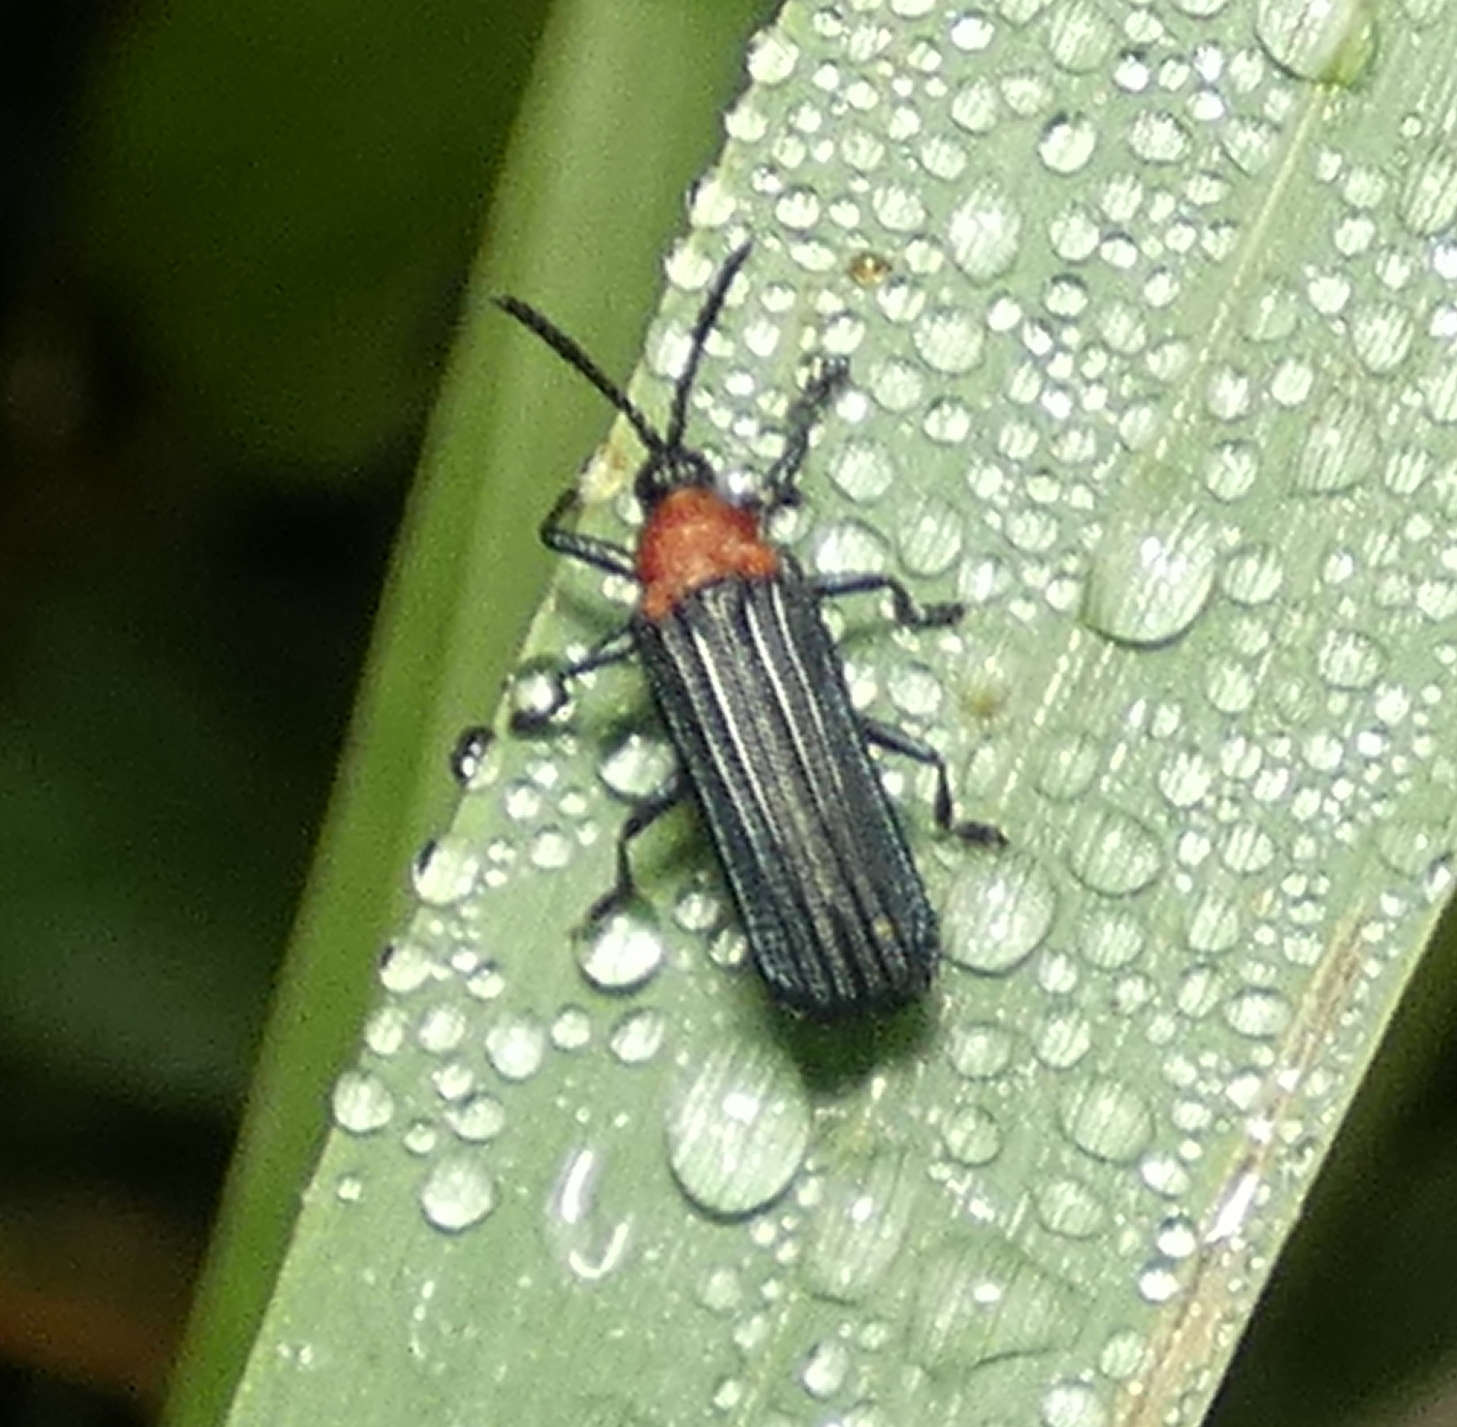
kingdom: Animalia
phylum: Arthropoda
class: Insecta
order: Coleoptera
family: Chrysomelidae
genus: Chalepus
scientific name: Chalepus notula
